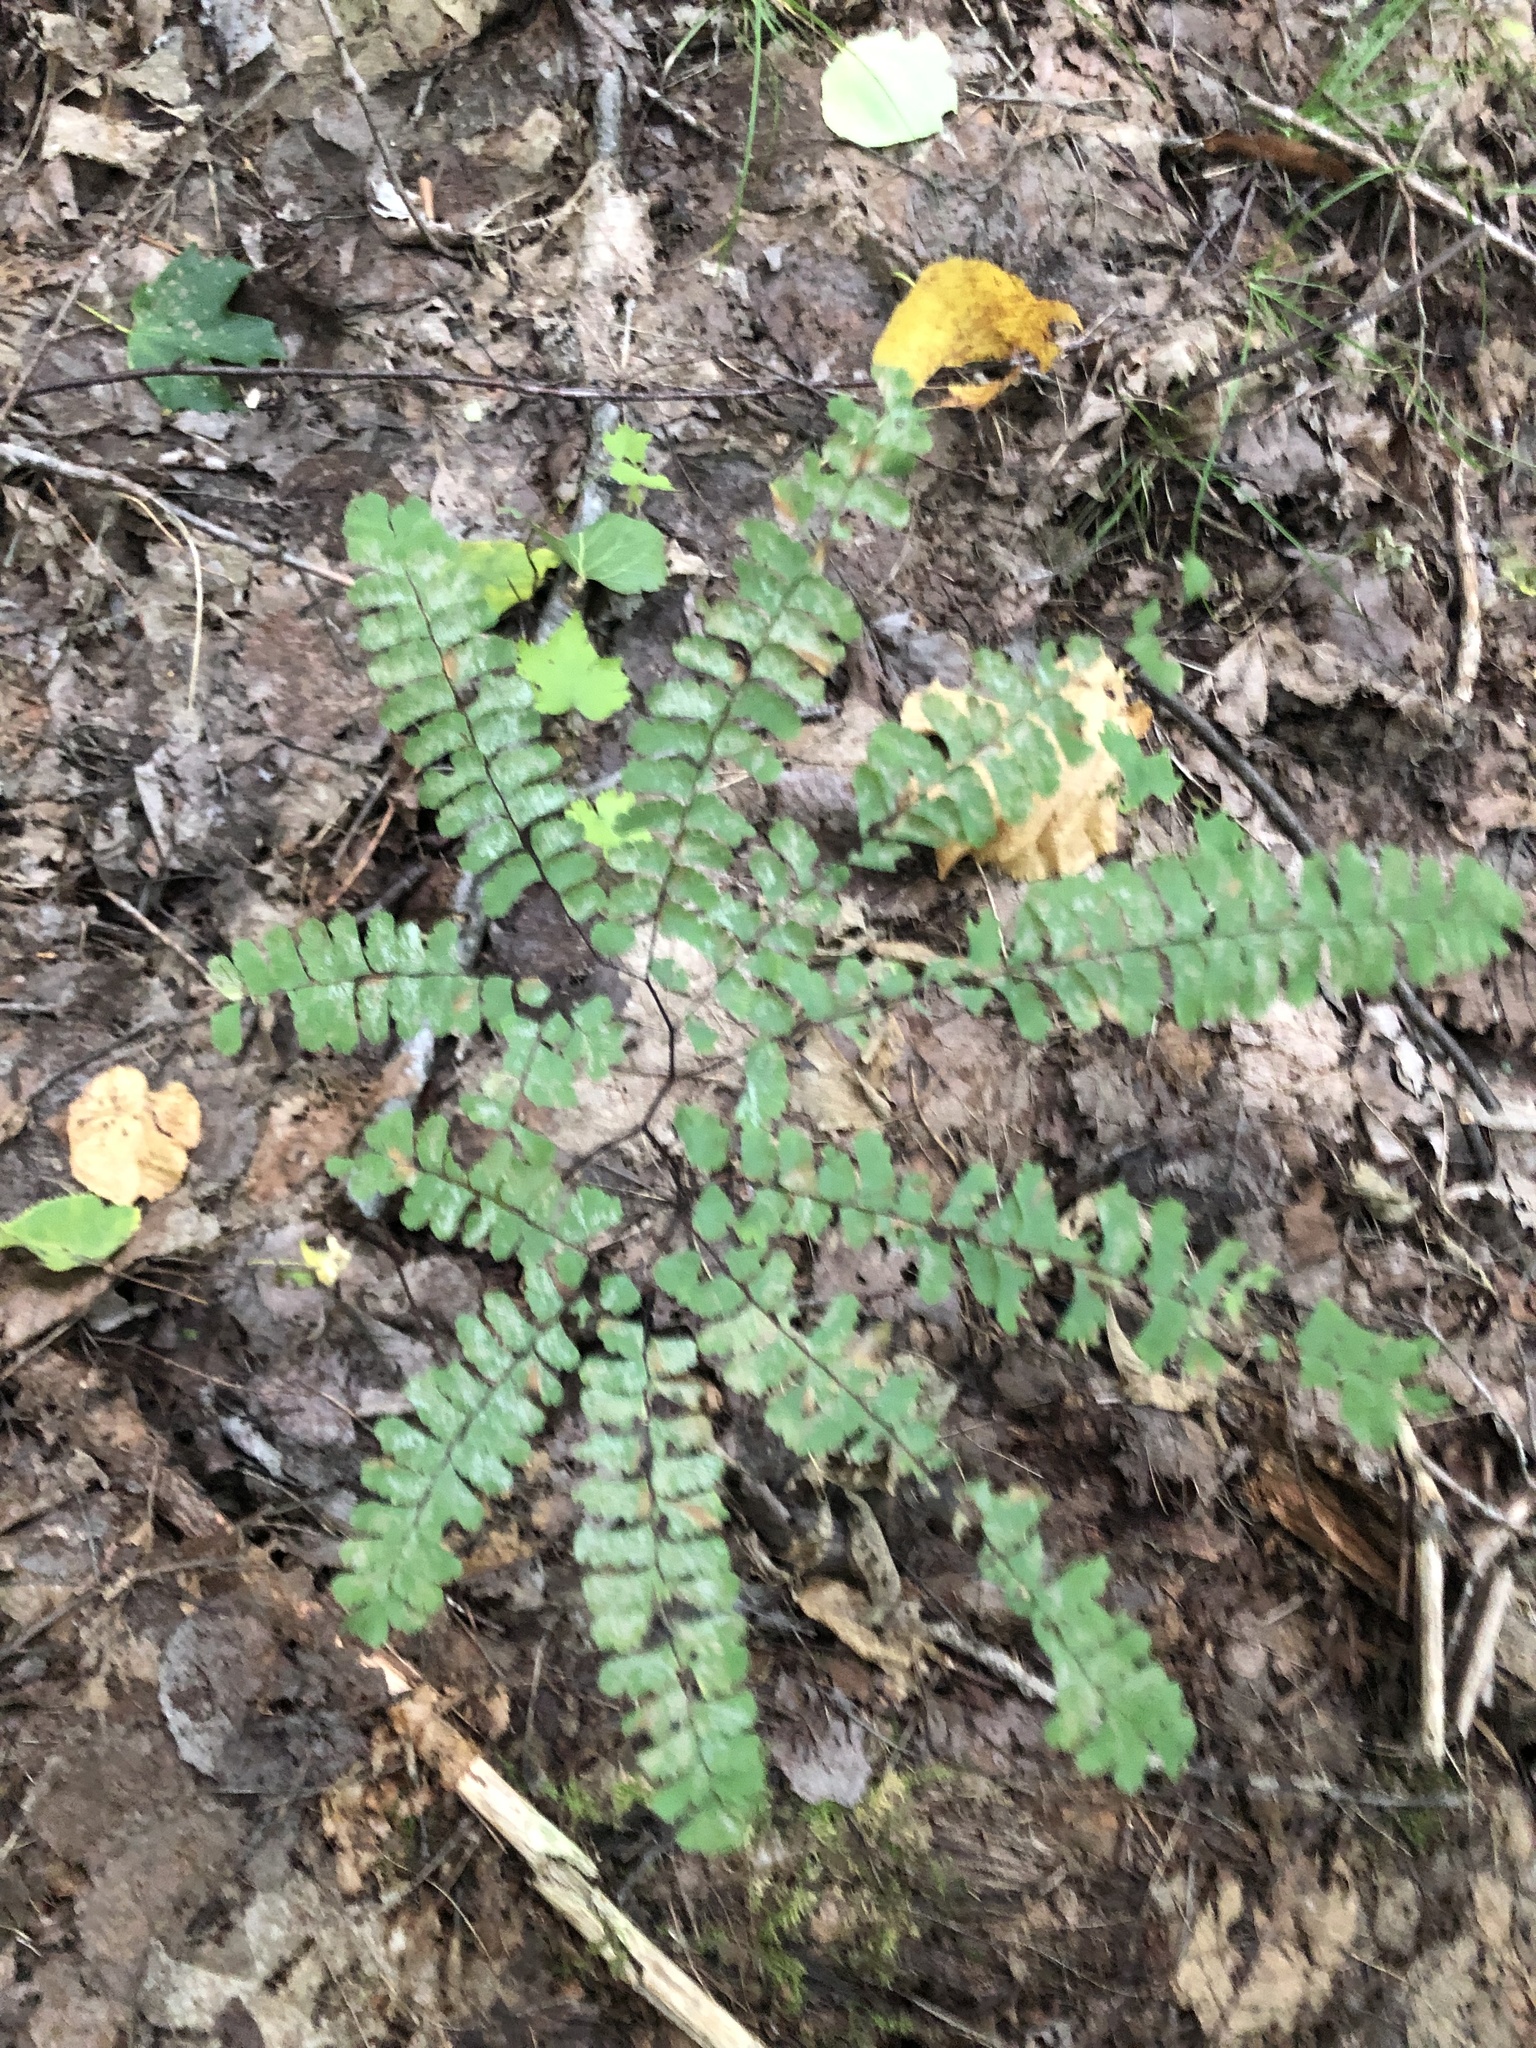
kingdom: Plantae
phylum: Tracheophyta
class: Polypodiopsida
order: Polypodiales
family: Pteridaceae
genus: Adiantum
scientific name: Adiantum pedatum
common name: Five-finger fern
